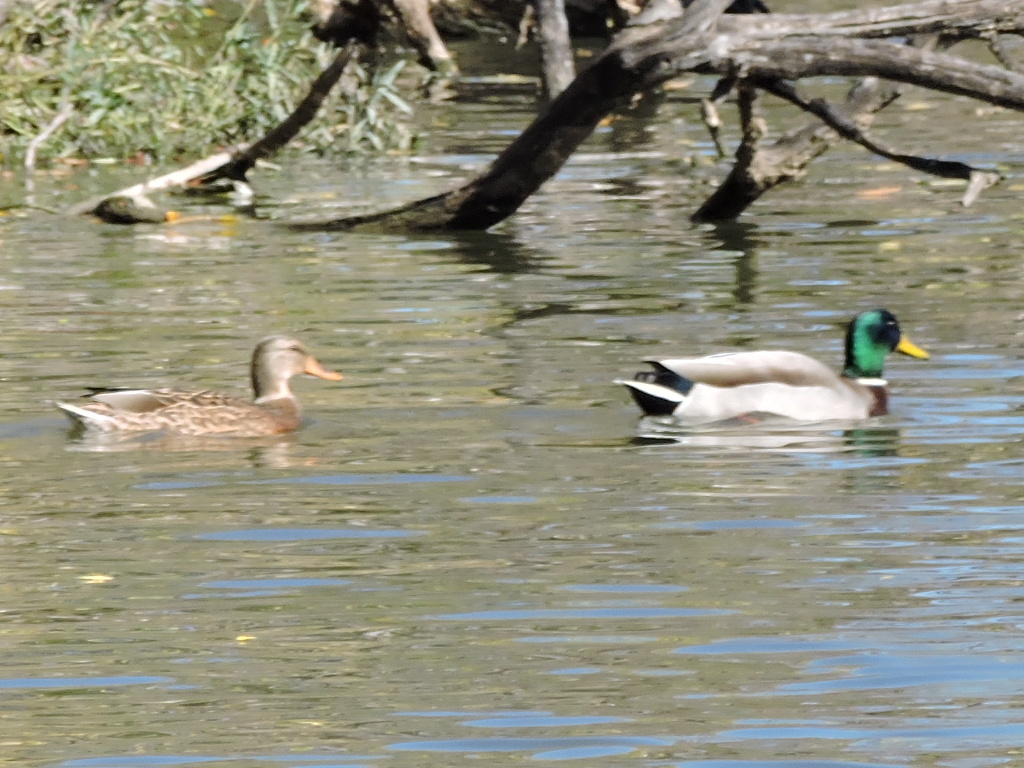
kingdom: Animalia
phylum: Chordata
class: Aves
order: Anseriformes
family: Anatidae
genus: Anas
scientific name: Anas platyrhynchos
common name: Mallard
